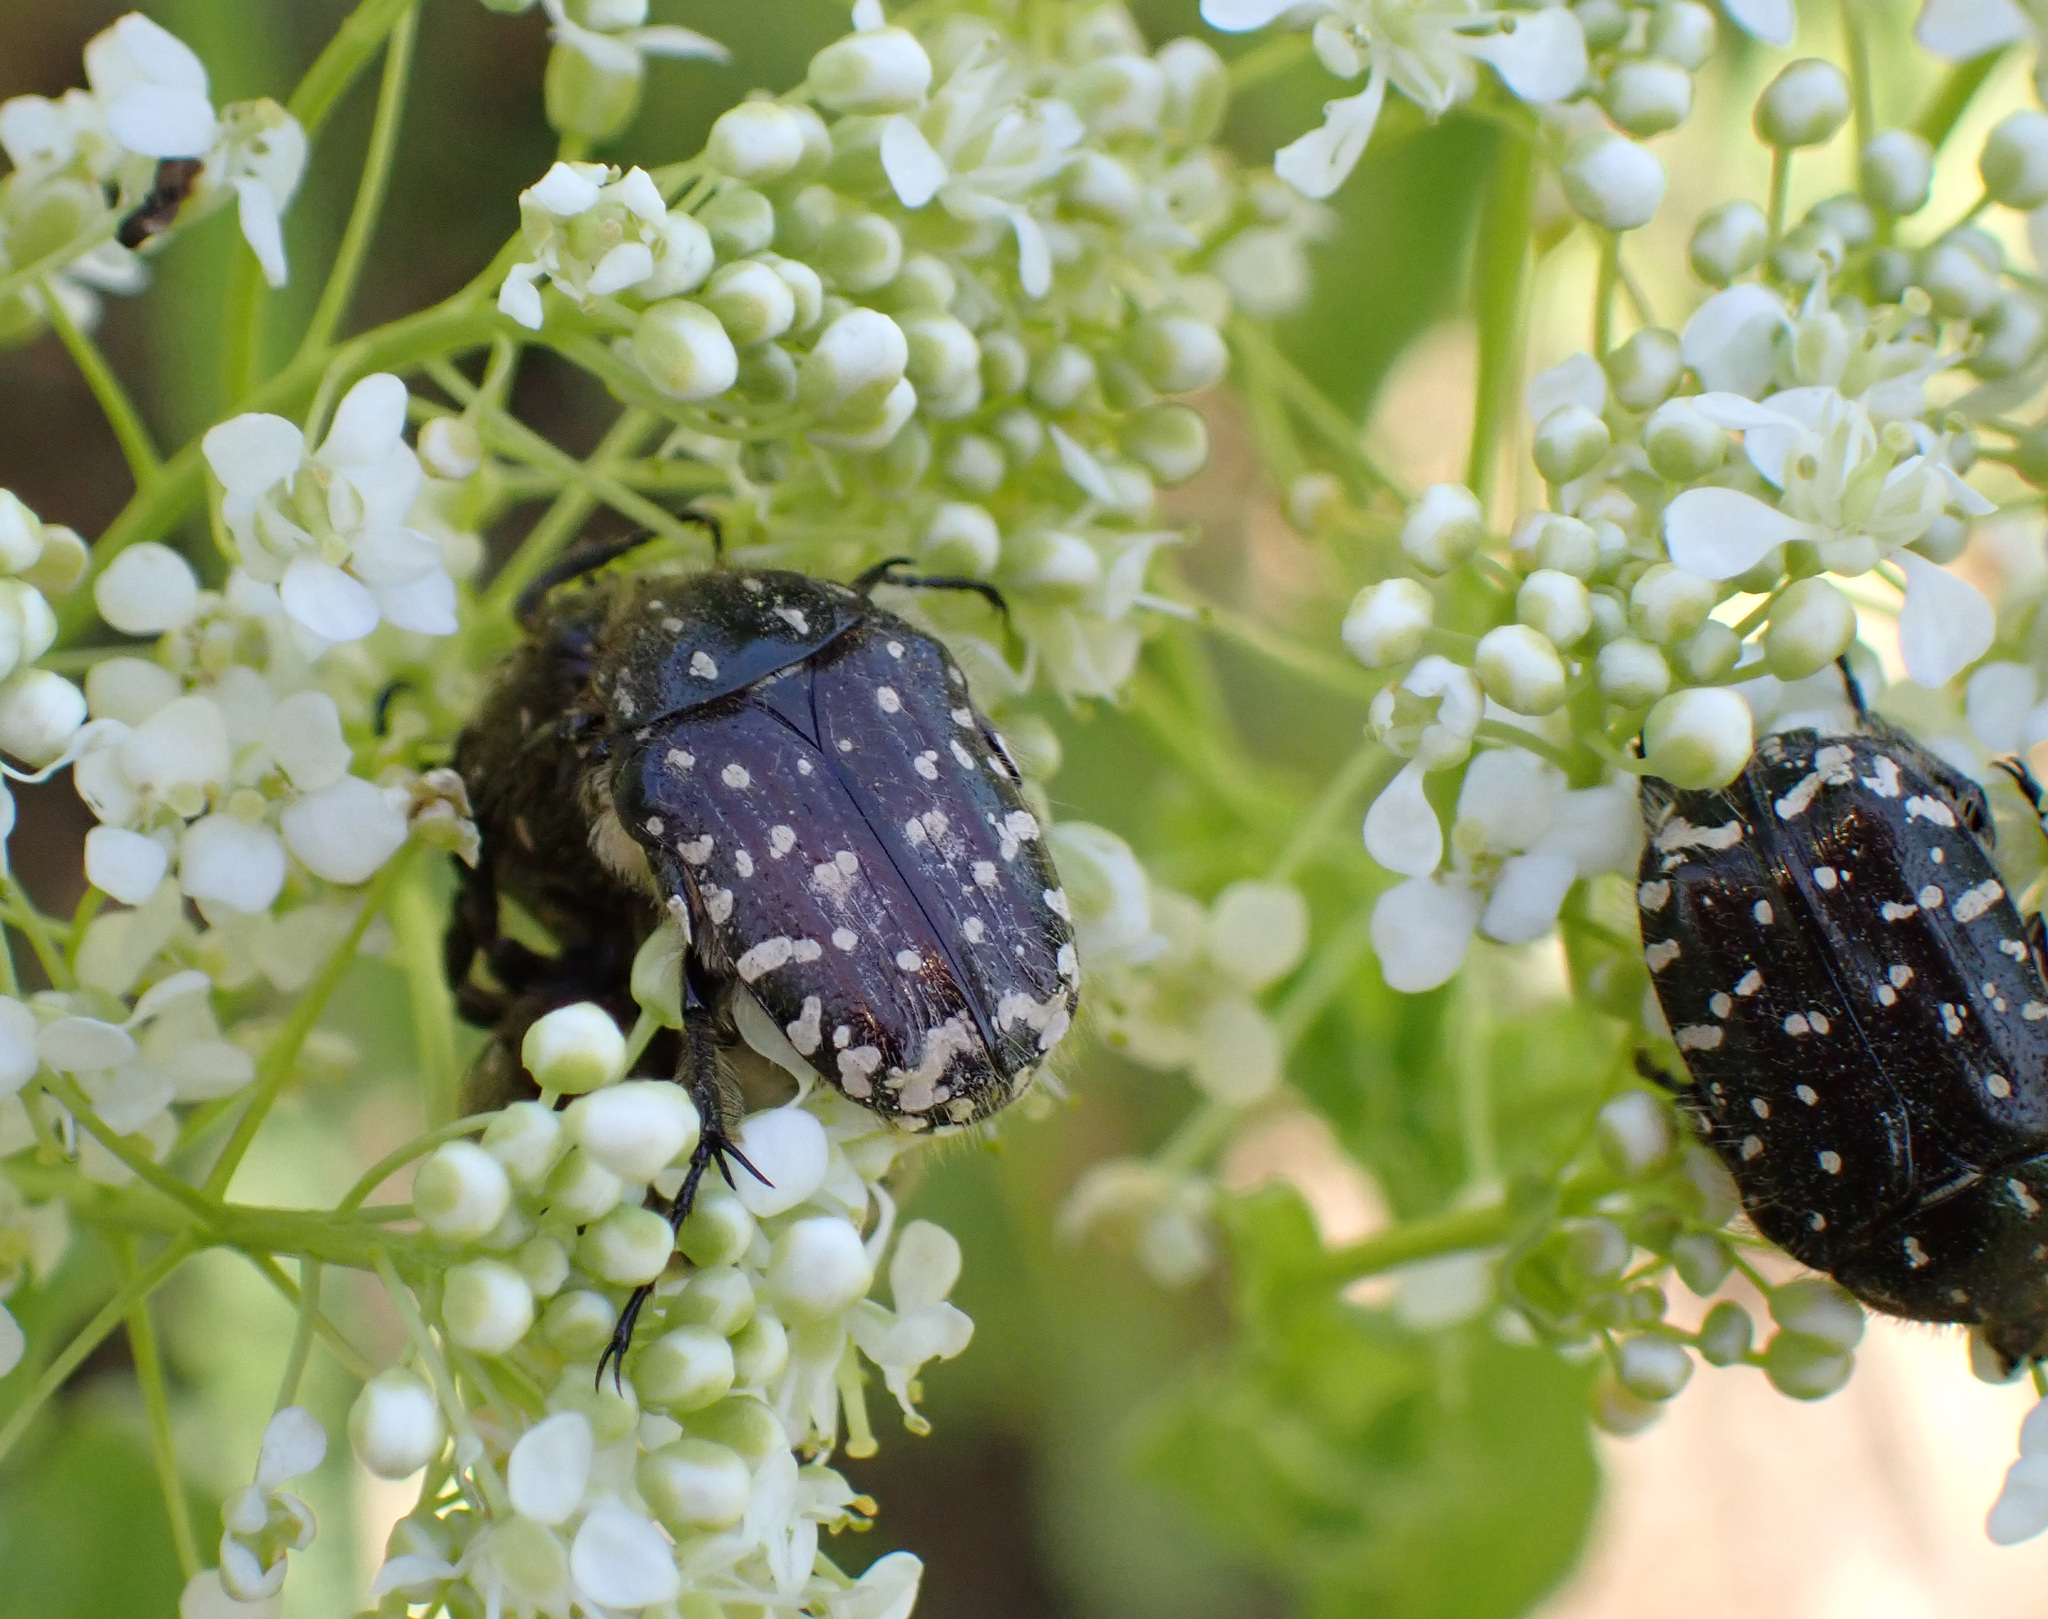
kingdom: Animalia
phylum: Arthropoda
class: Insecta
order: Coleoptera
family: Scarabaeidae
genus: Oxythyrea
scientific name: Oxythyrea funesta
